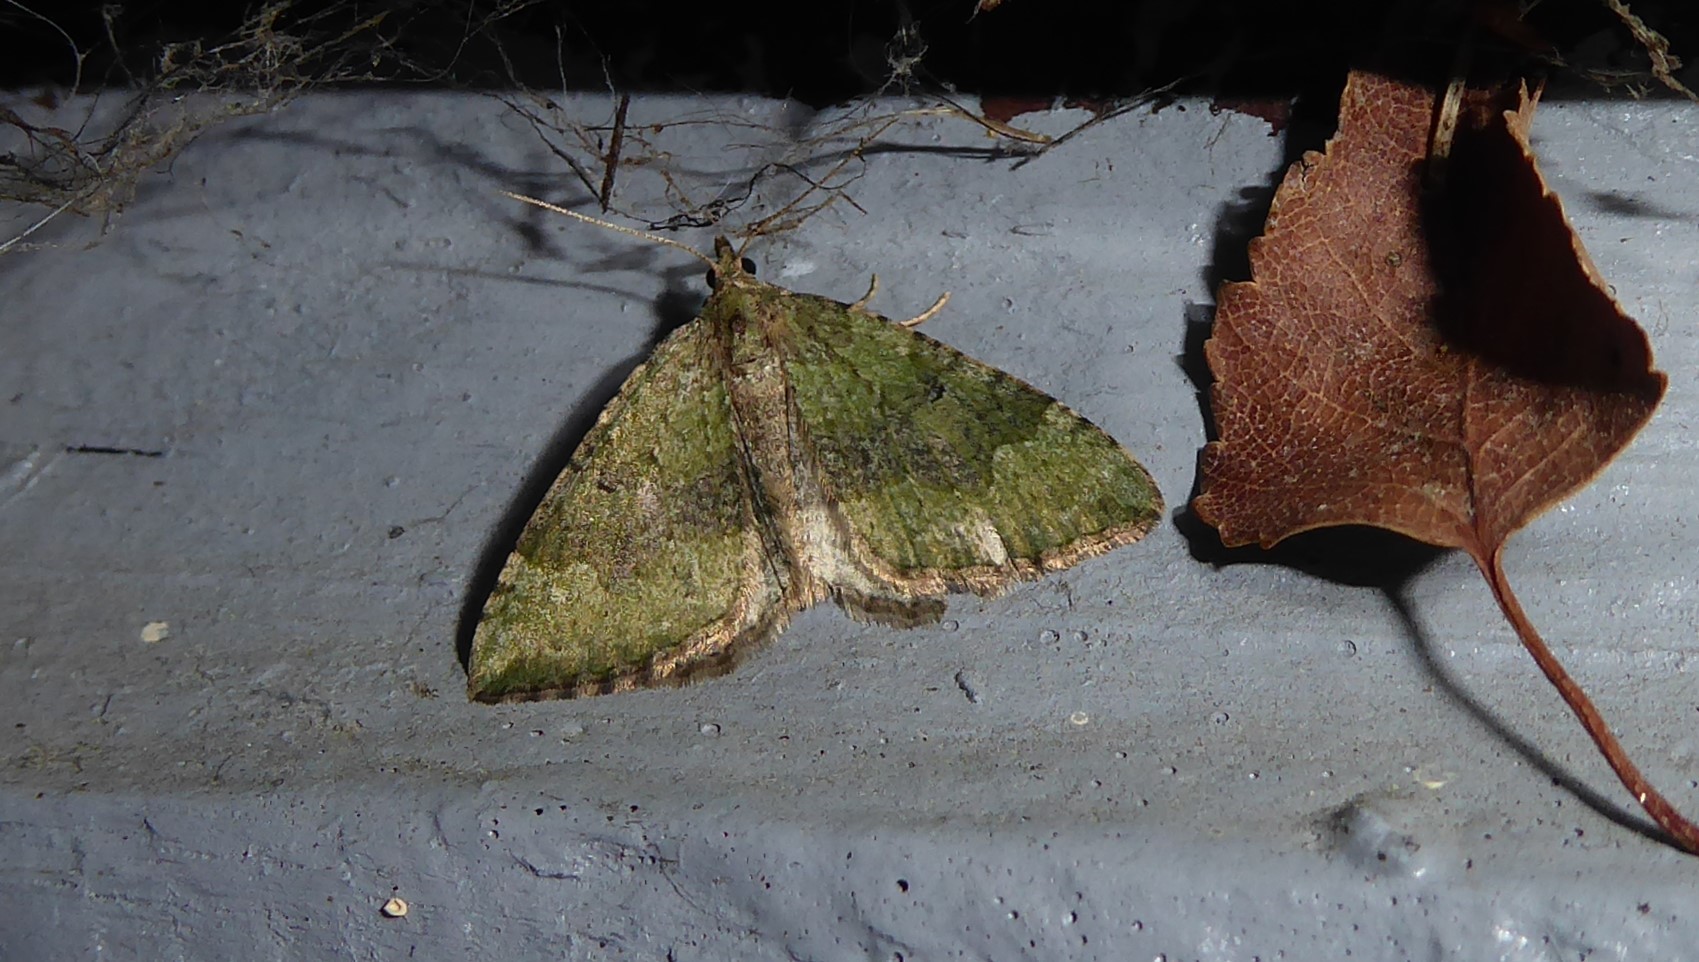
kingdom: Animalia
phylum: Arthropoda
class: Insecta
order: Lepidoptera
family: Geometridae
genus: Epyaxa
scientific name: Epyaxa rosearia
